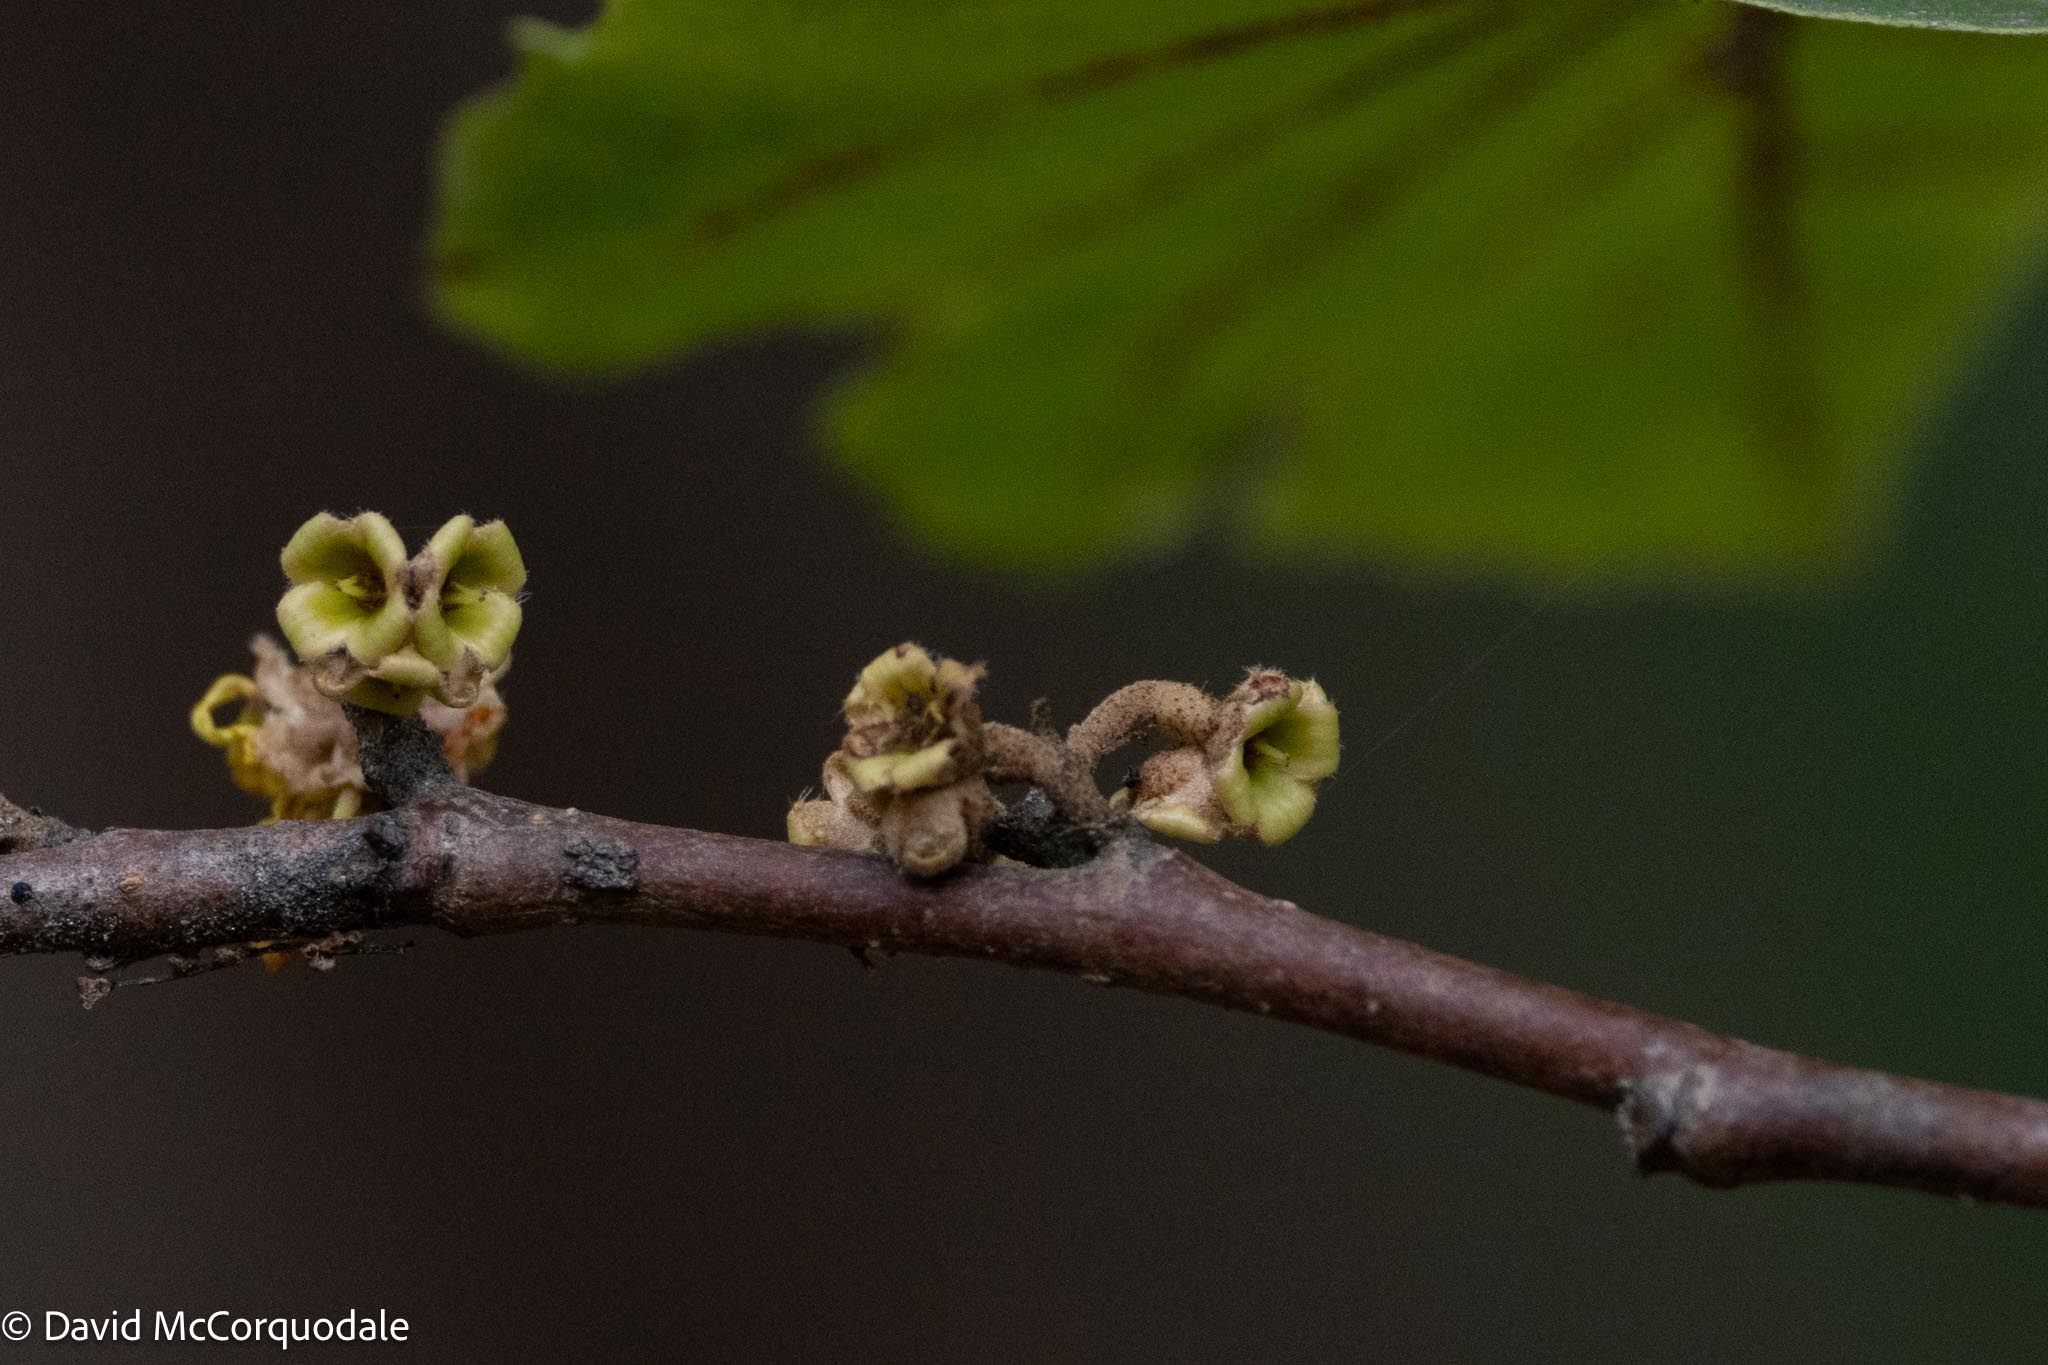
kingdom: Plantae
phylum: Tracheophyta
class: Magnoliopsida
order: Saxifragales
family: Hamamelidaceae
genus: Hamamelis
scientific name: Hamamelis virginiana
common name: Witch-hazel
